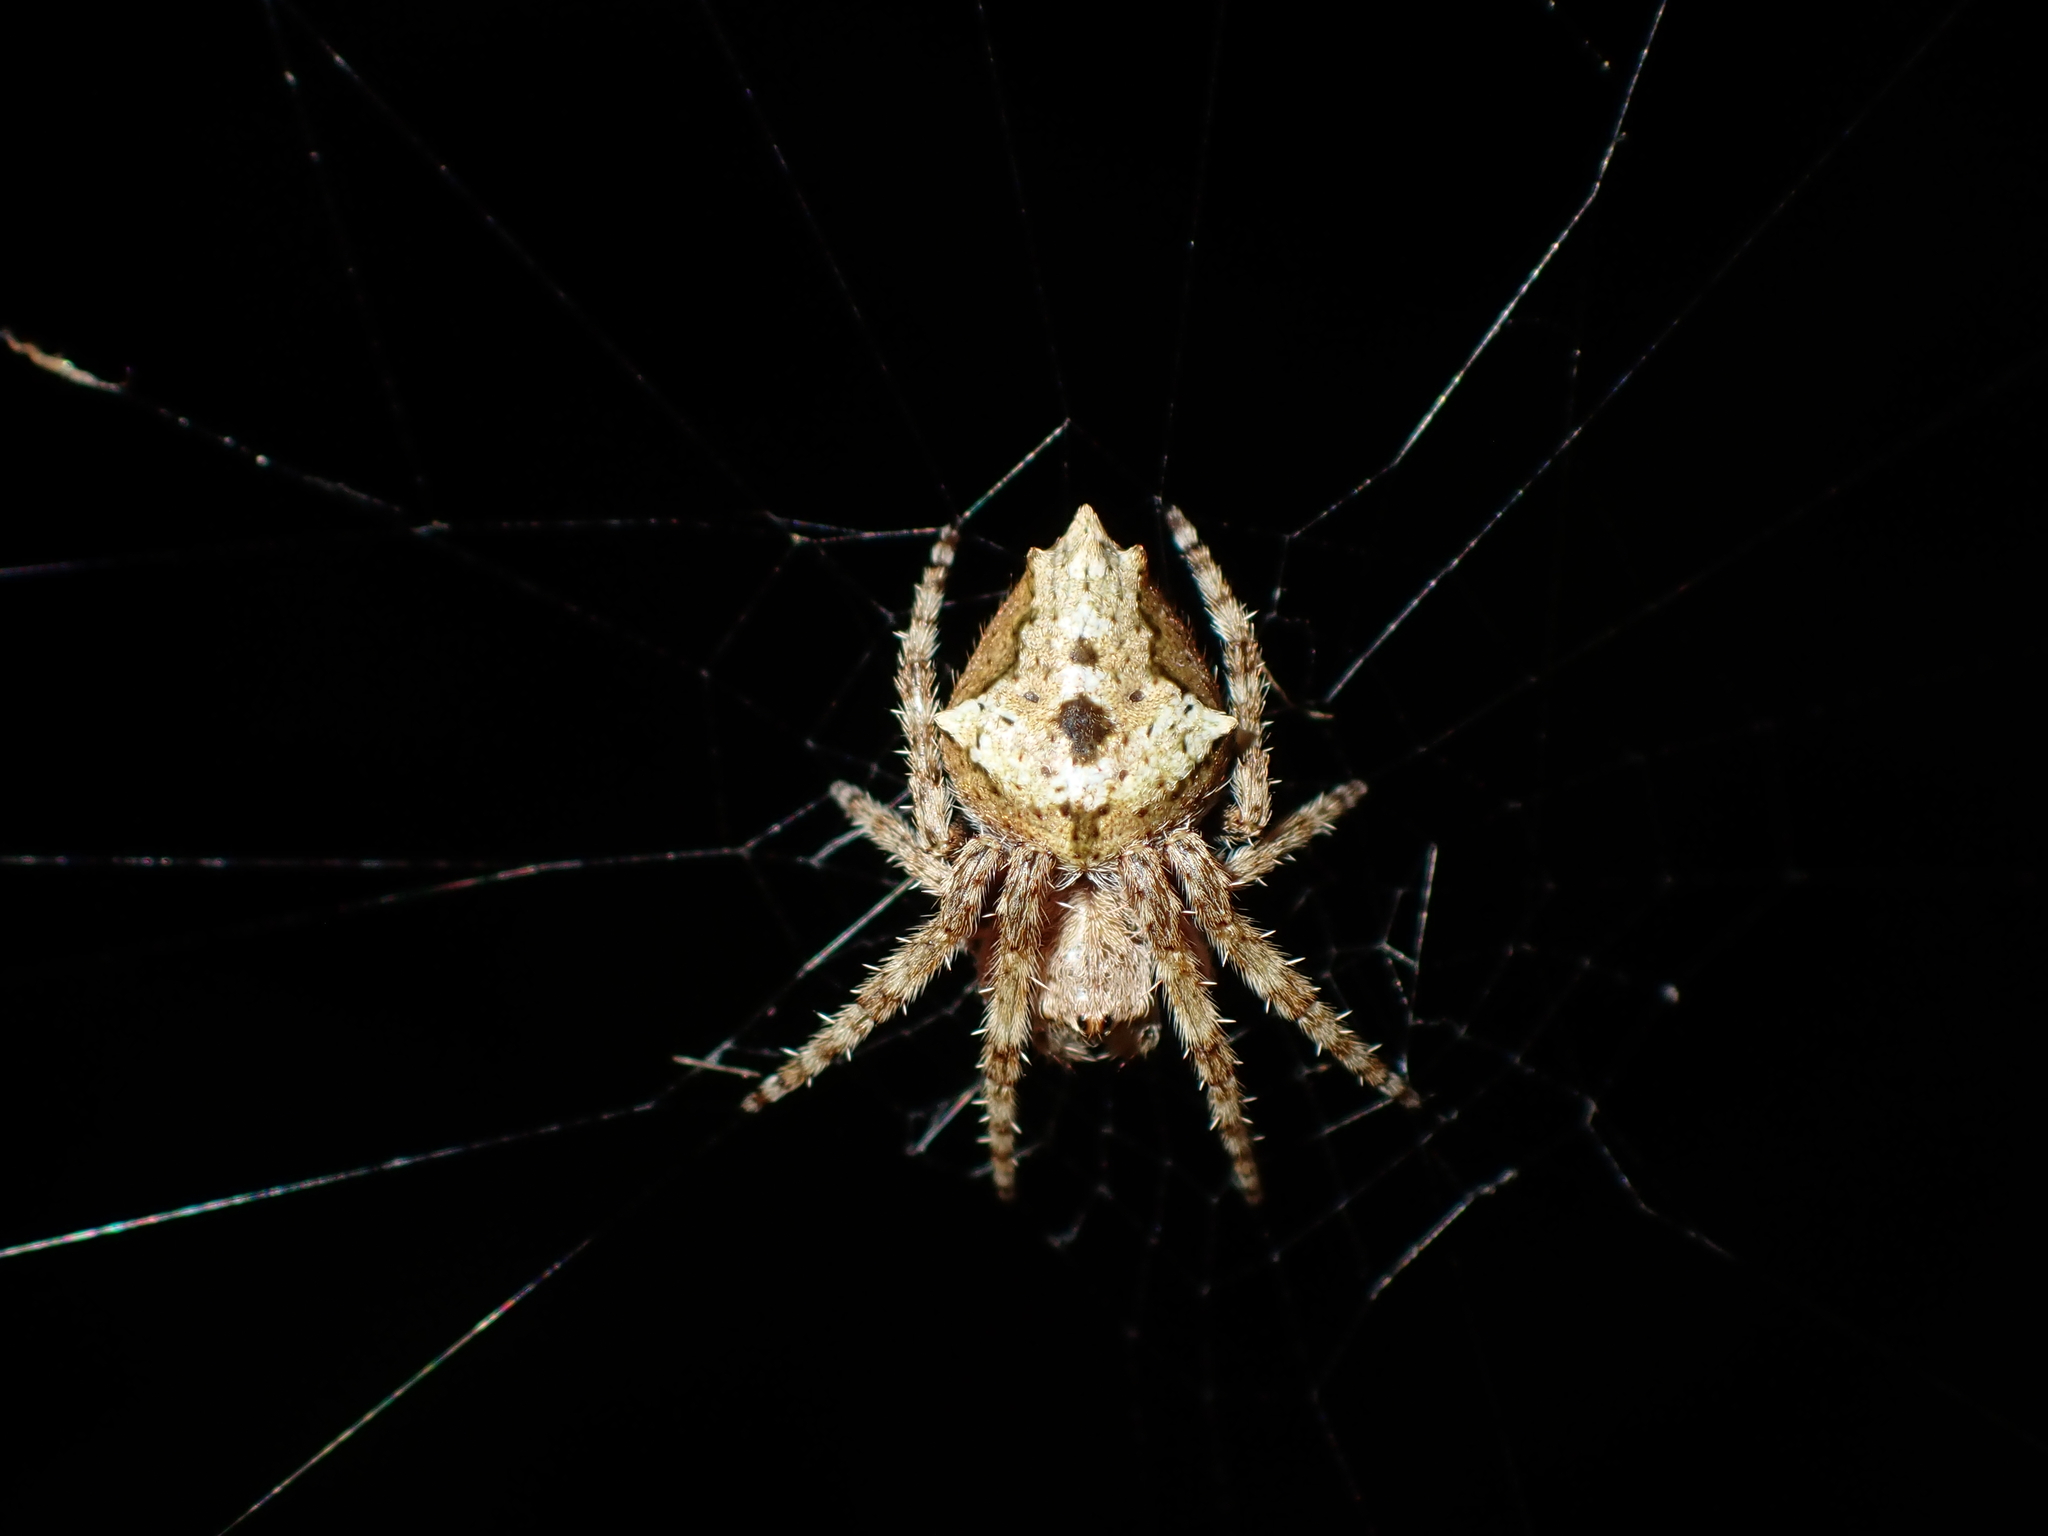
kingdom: Animalia
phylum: Arthropoda
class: Arachnida
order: Araneae
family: Araneidae
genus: Eriophora
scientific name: Eriophora pustulosa
